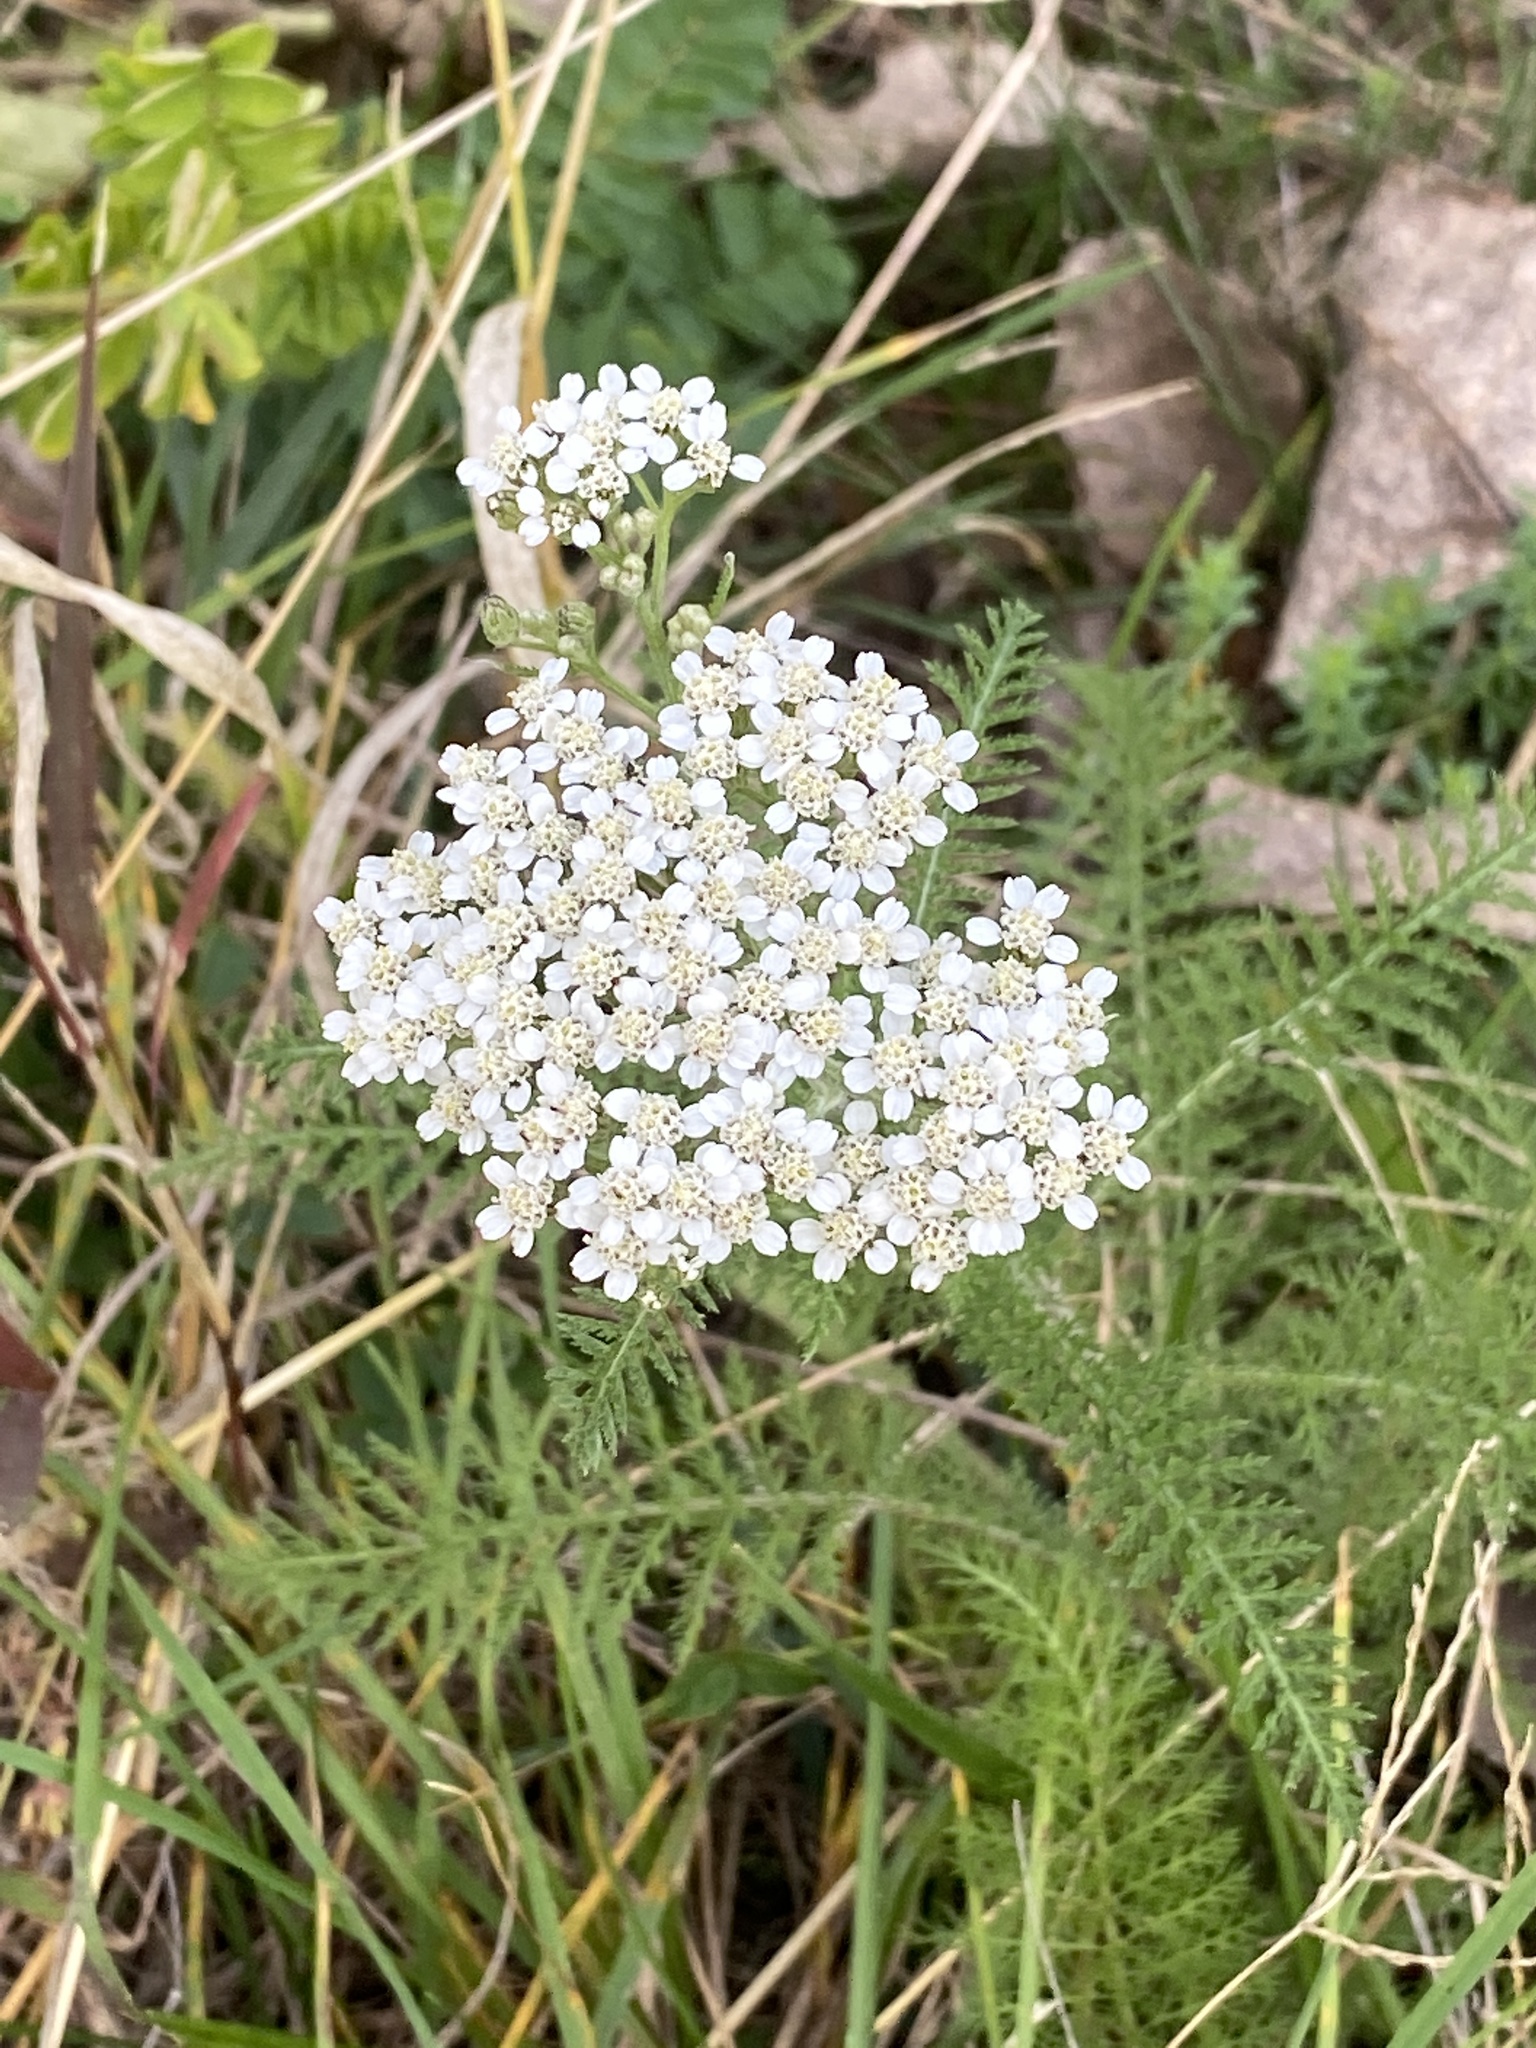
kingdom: Plantae
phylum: Tracheophyta
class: Magnoliopsida
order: Asterales
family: Asteraceae
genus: Achillea
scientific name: Achillea millefolium
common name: Yarrow
